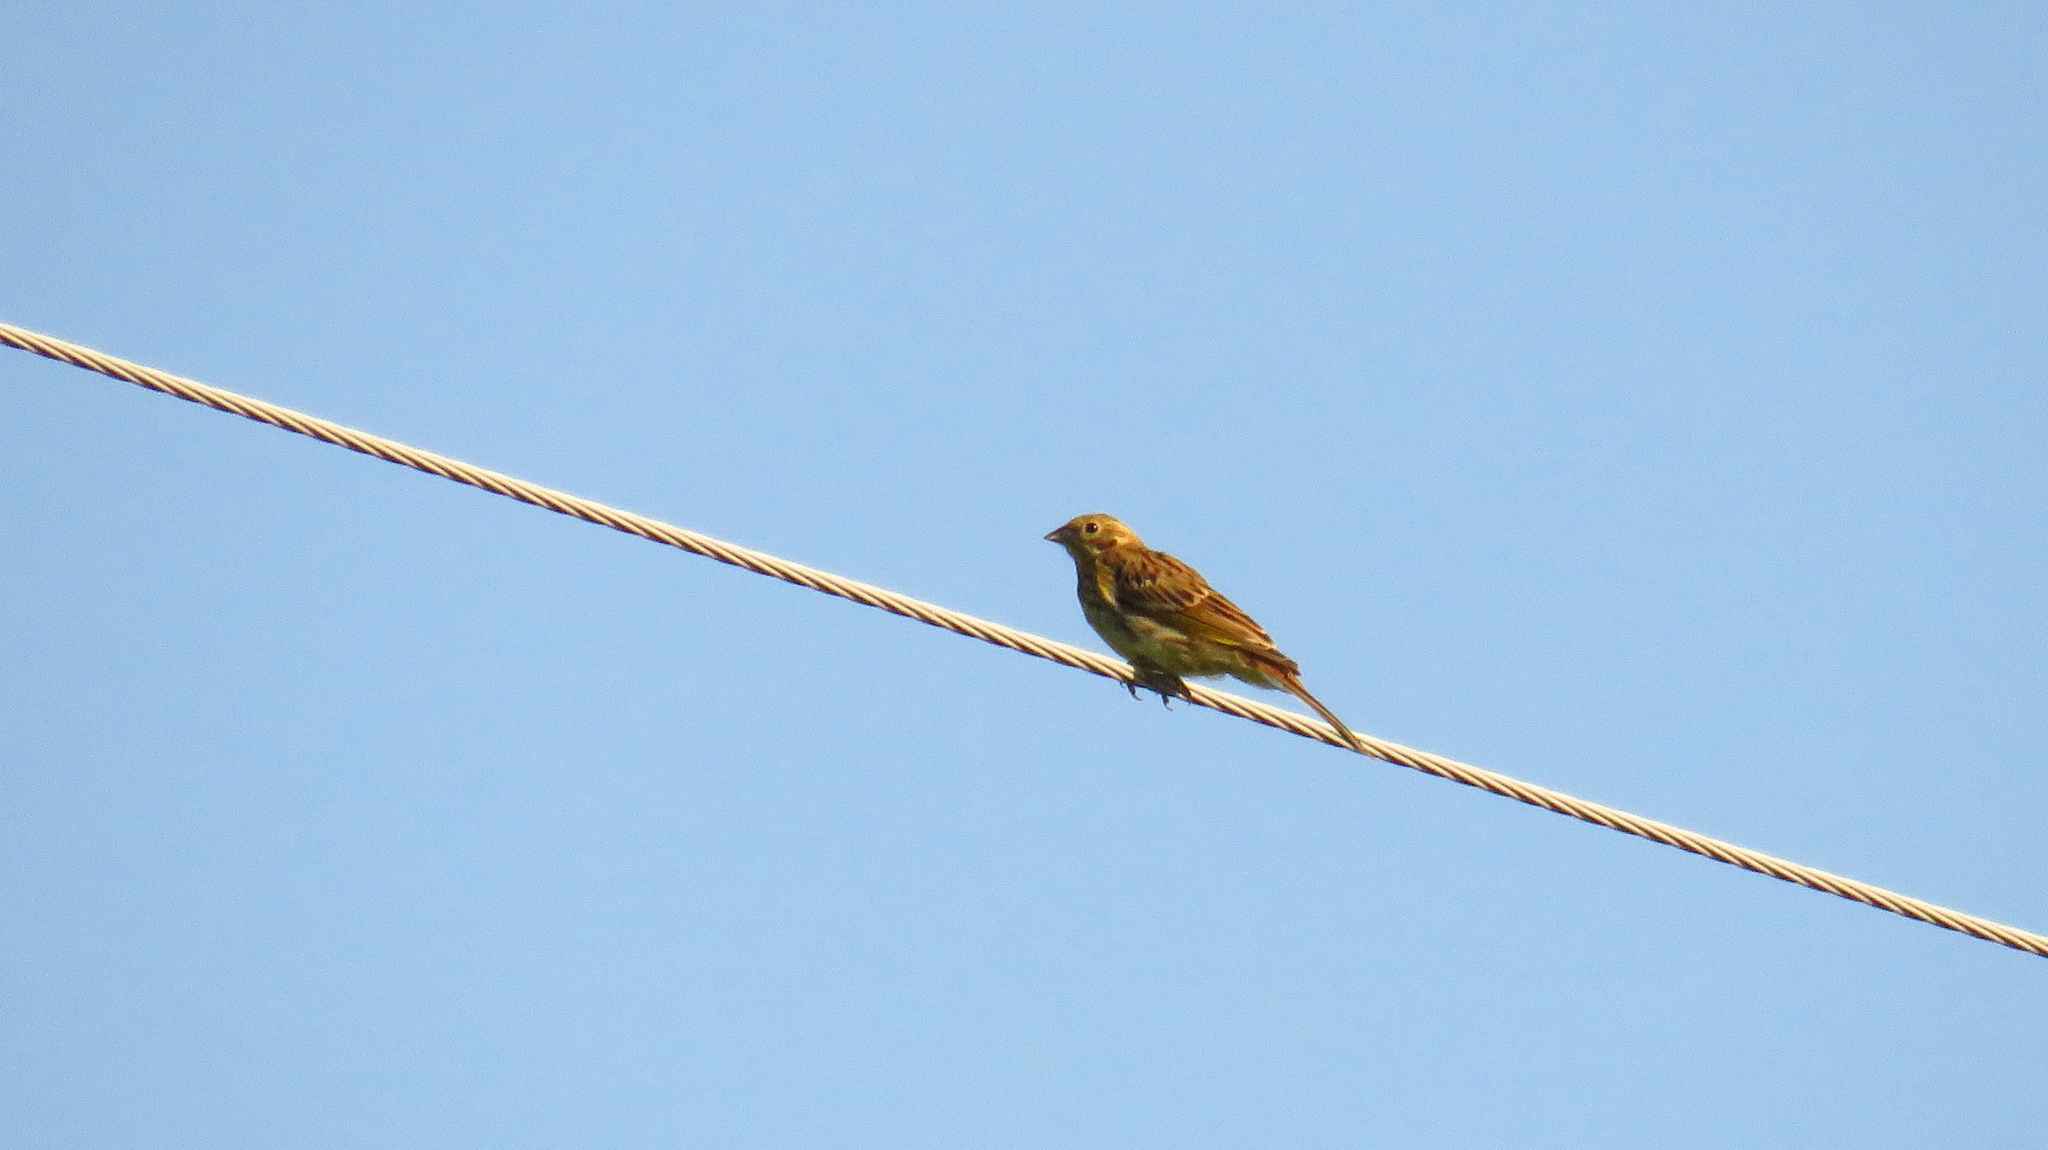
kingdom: Animalia
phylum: Chordata
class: Aves
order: Passeriformes
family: Emberizidae
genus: Emberiza
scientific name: Emberiza citrinella
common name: Yellowhammer
